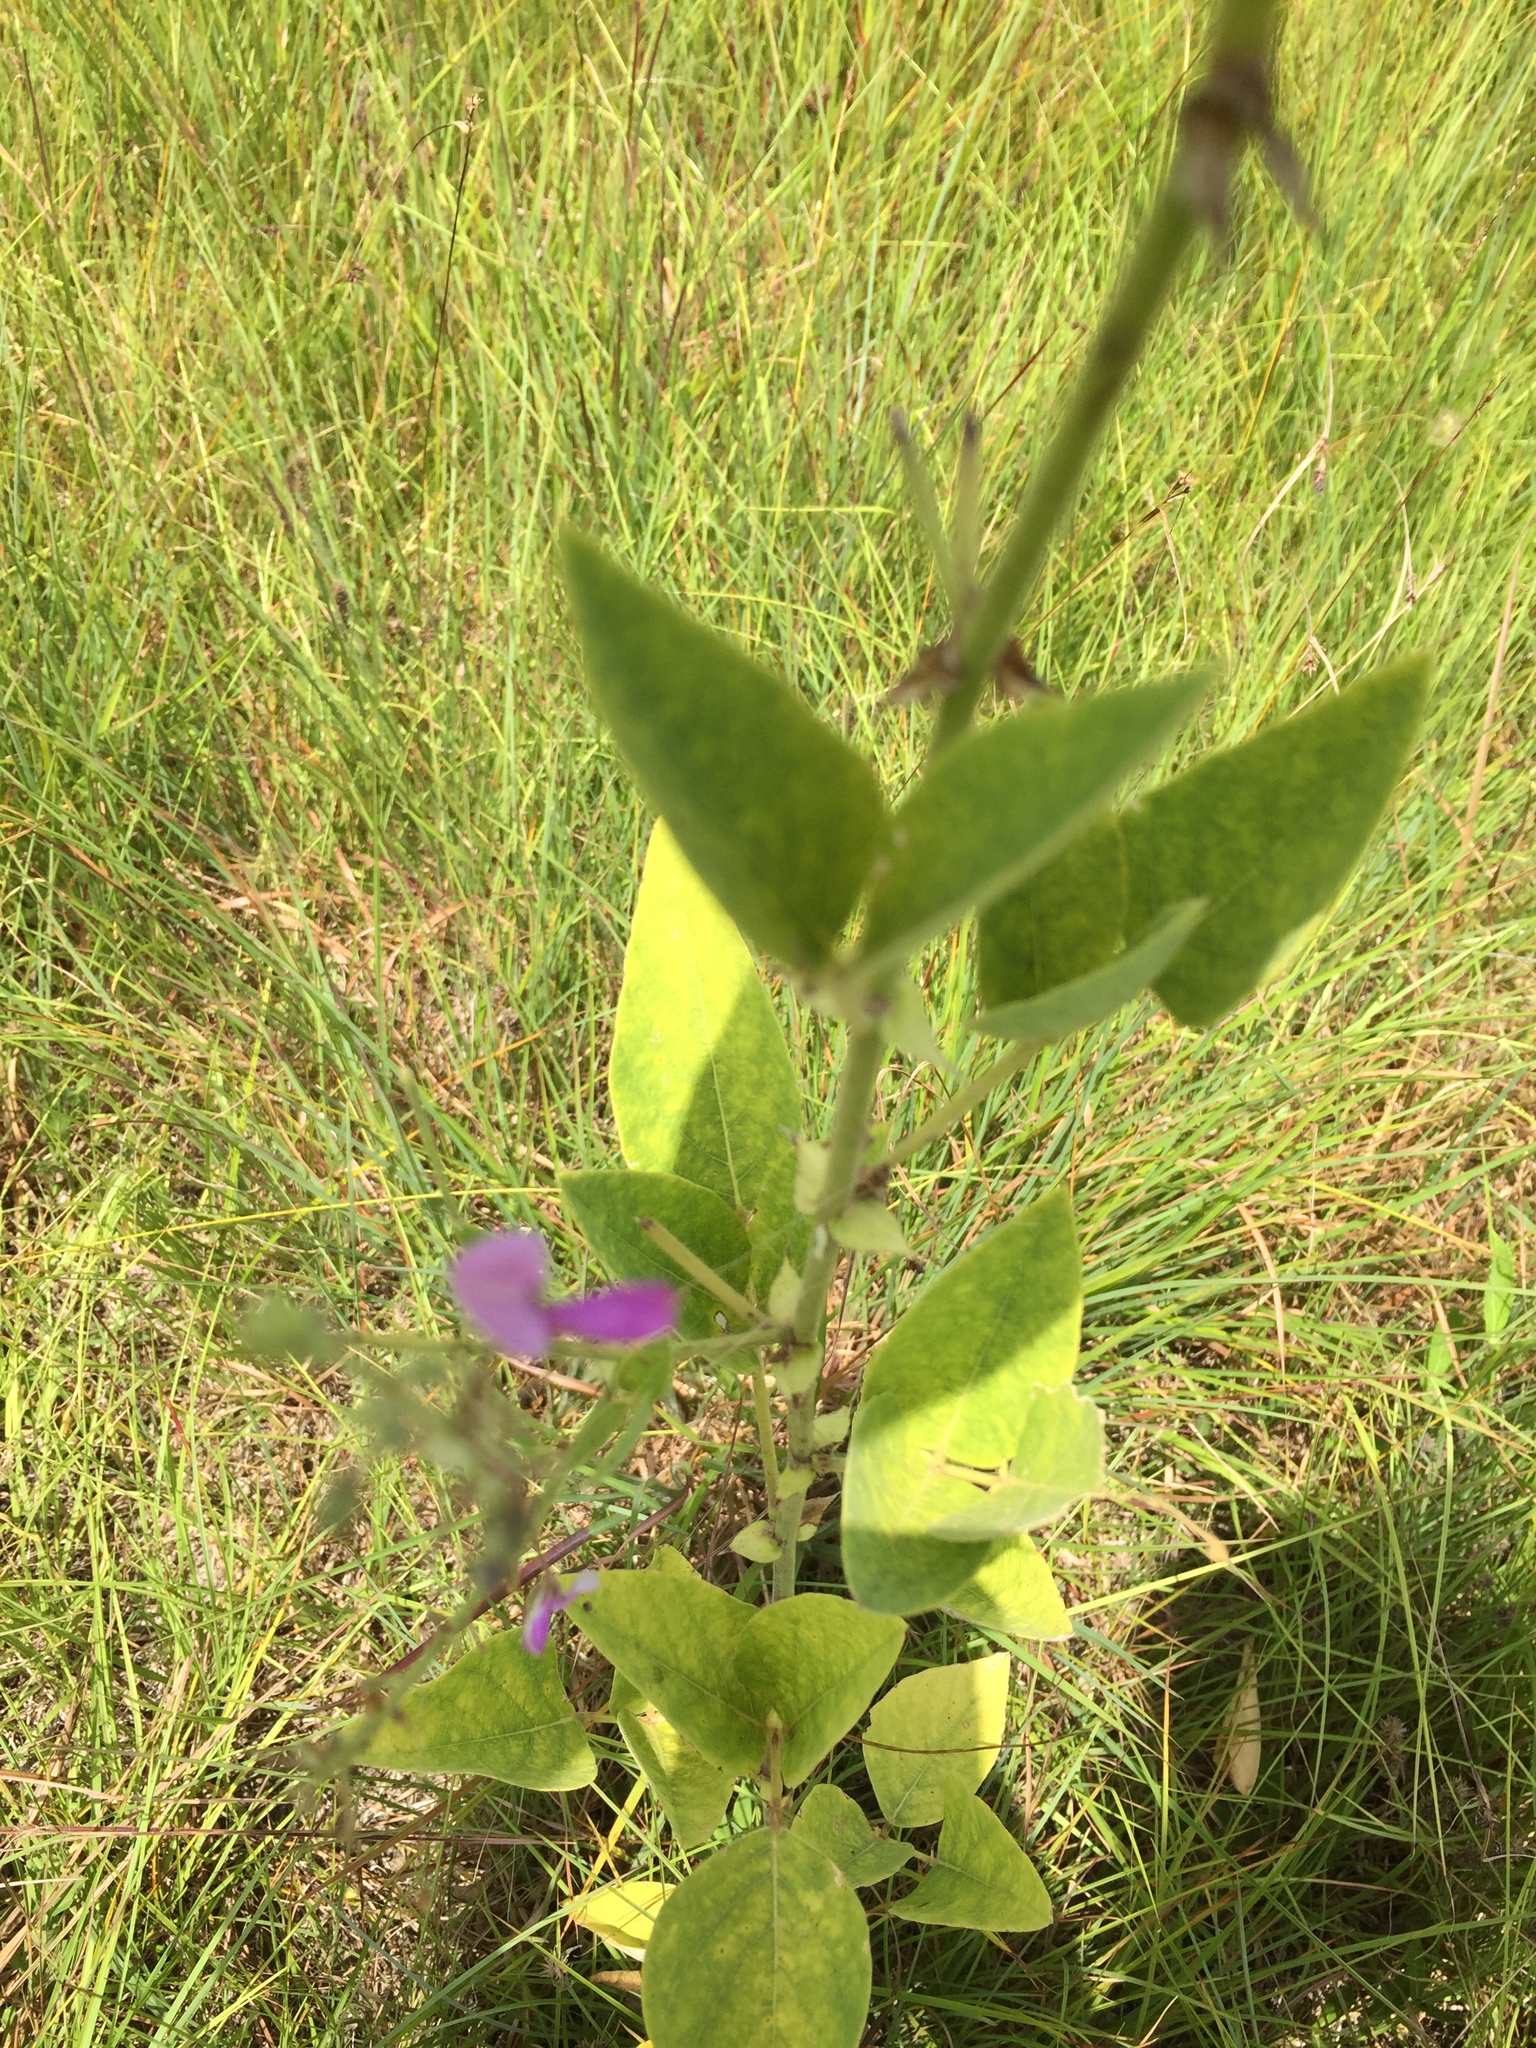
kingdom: Plantae
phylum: Tracheophyta
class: Magnoliopsida
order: Fabales
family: Fabaceae
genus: Desmodium
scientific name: Desmodium canescens
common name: Hoary tick-clover
